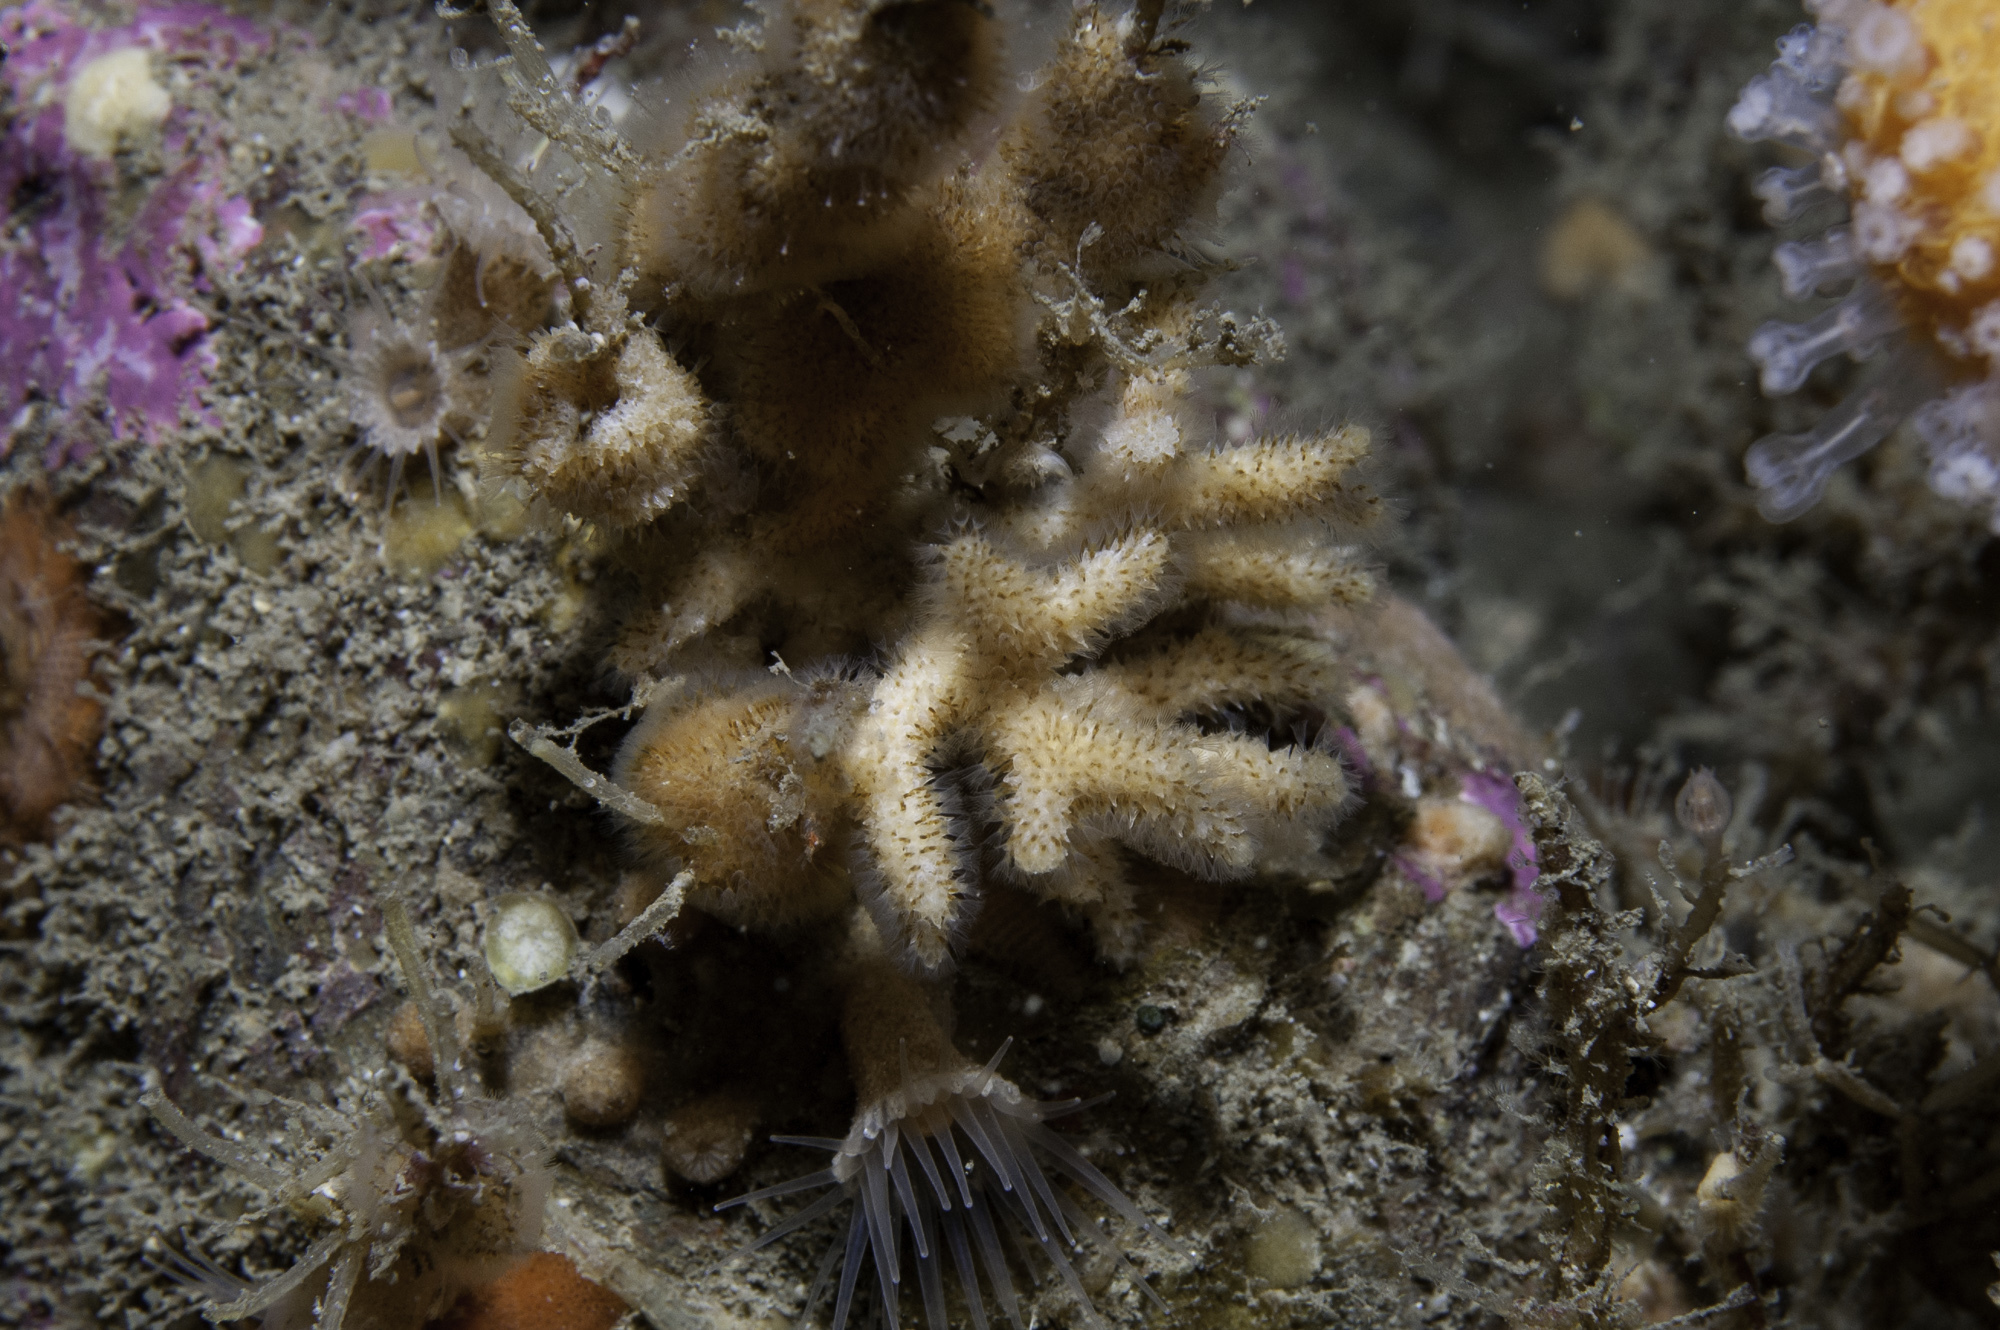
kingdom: Animalia
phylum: Bryozoa
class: Gymnolaemata
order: Cheilostomatida
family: Celleporidae
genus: Omalosecosa
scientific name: Omalosecosa ramulosa
